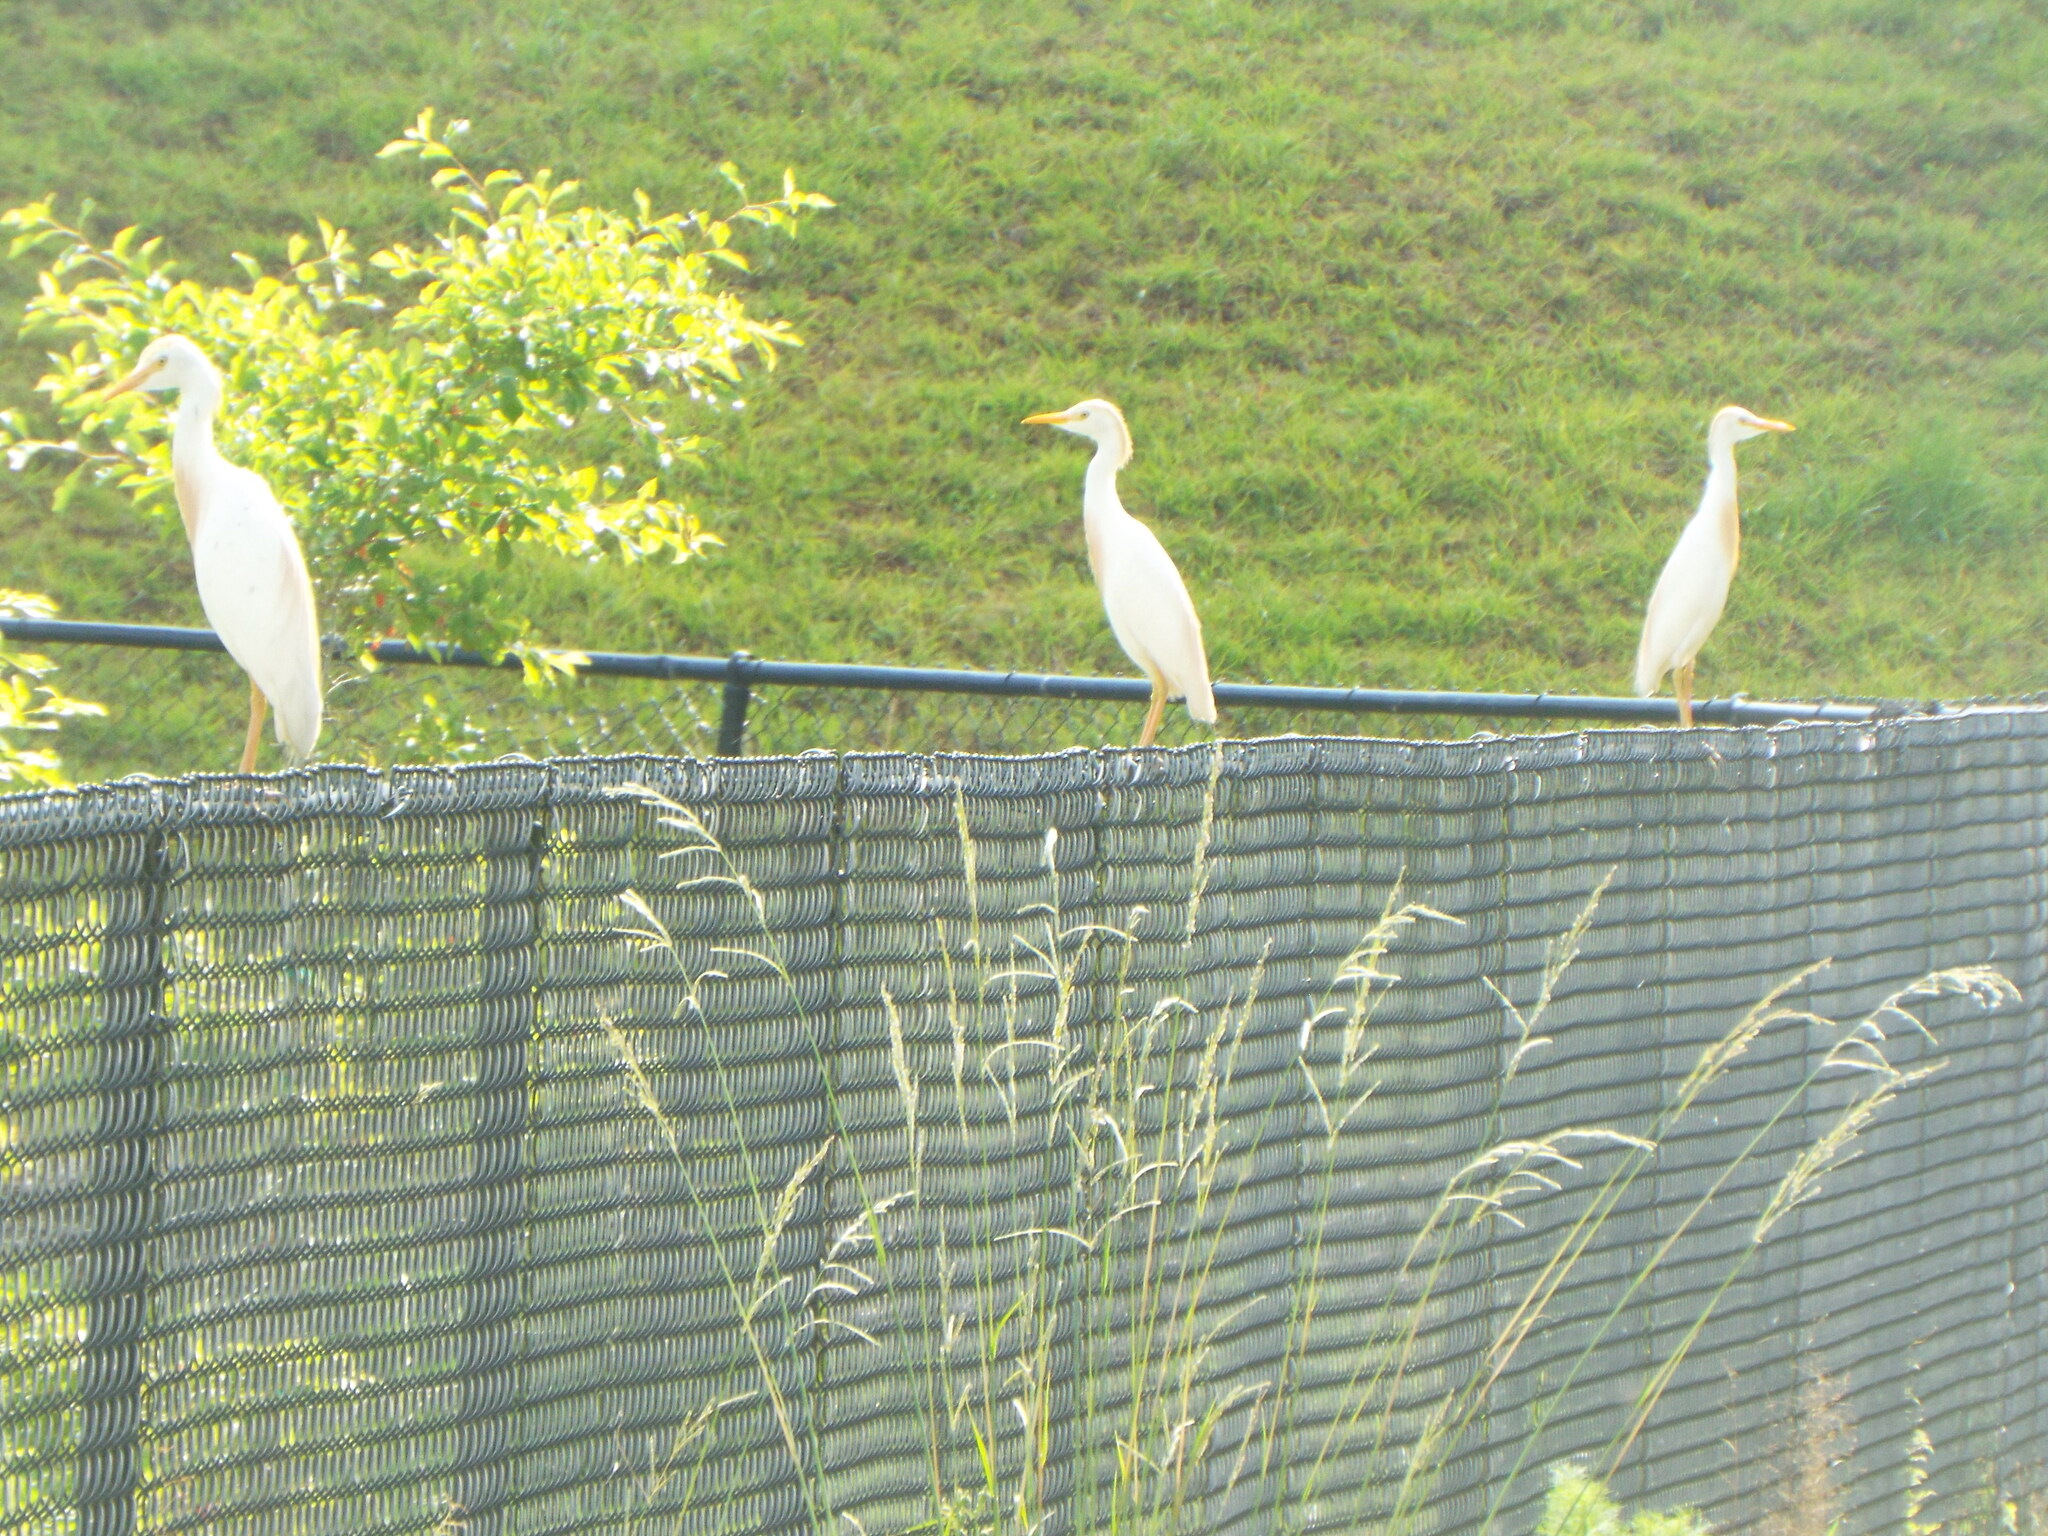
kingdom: Animalia
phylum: Chordata
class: Aves
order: Pelecaniformes
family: Ardeidae
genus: Bubulcus
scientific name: Bubulcus ibis
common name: Cattle egret
